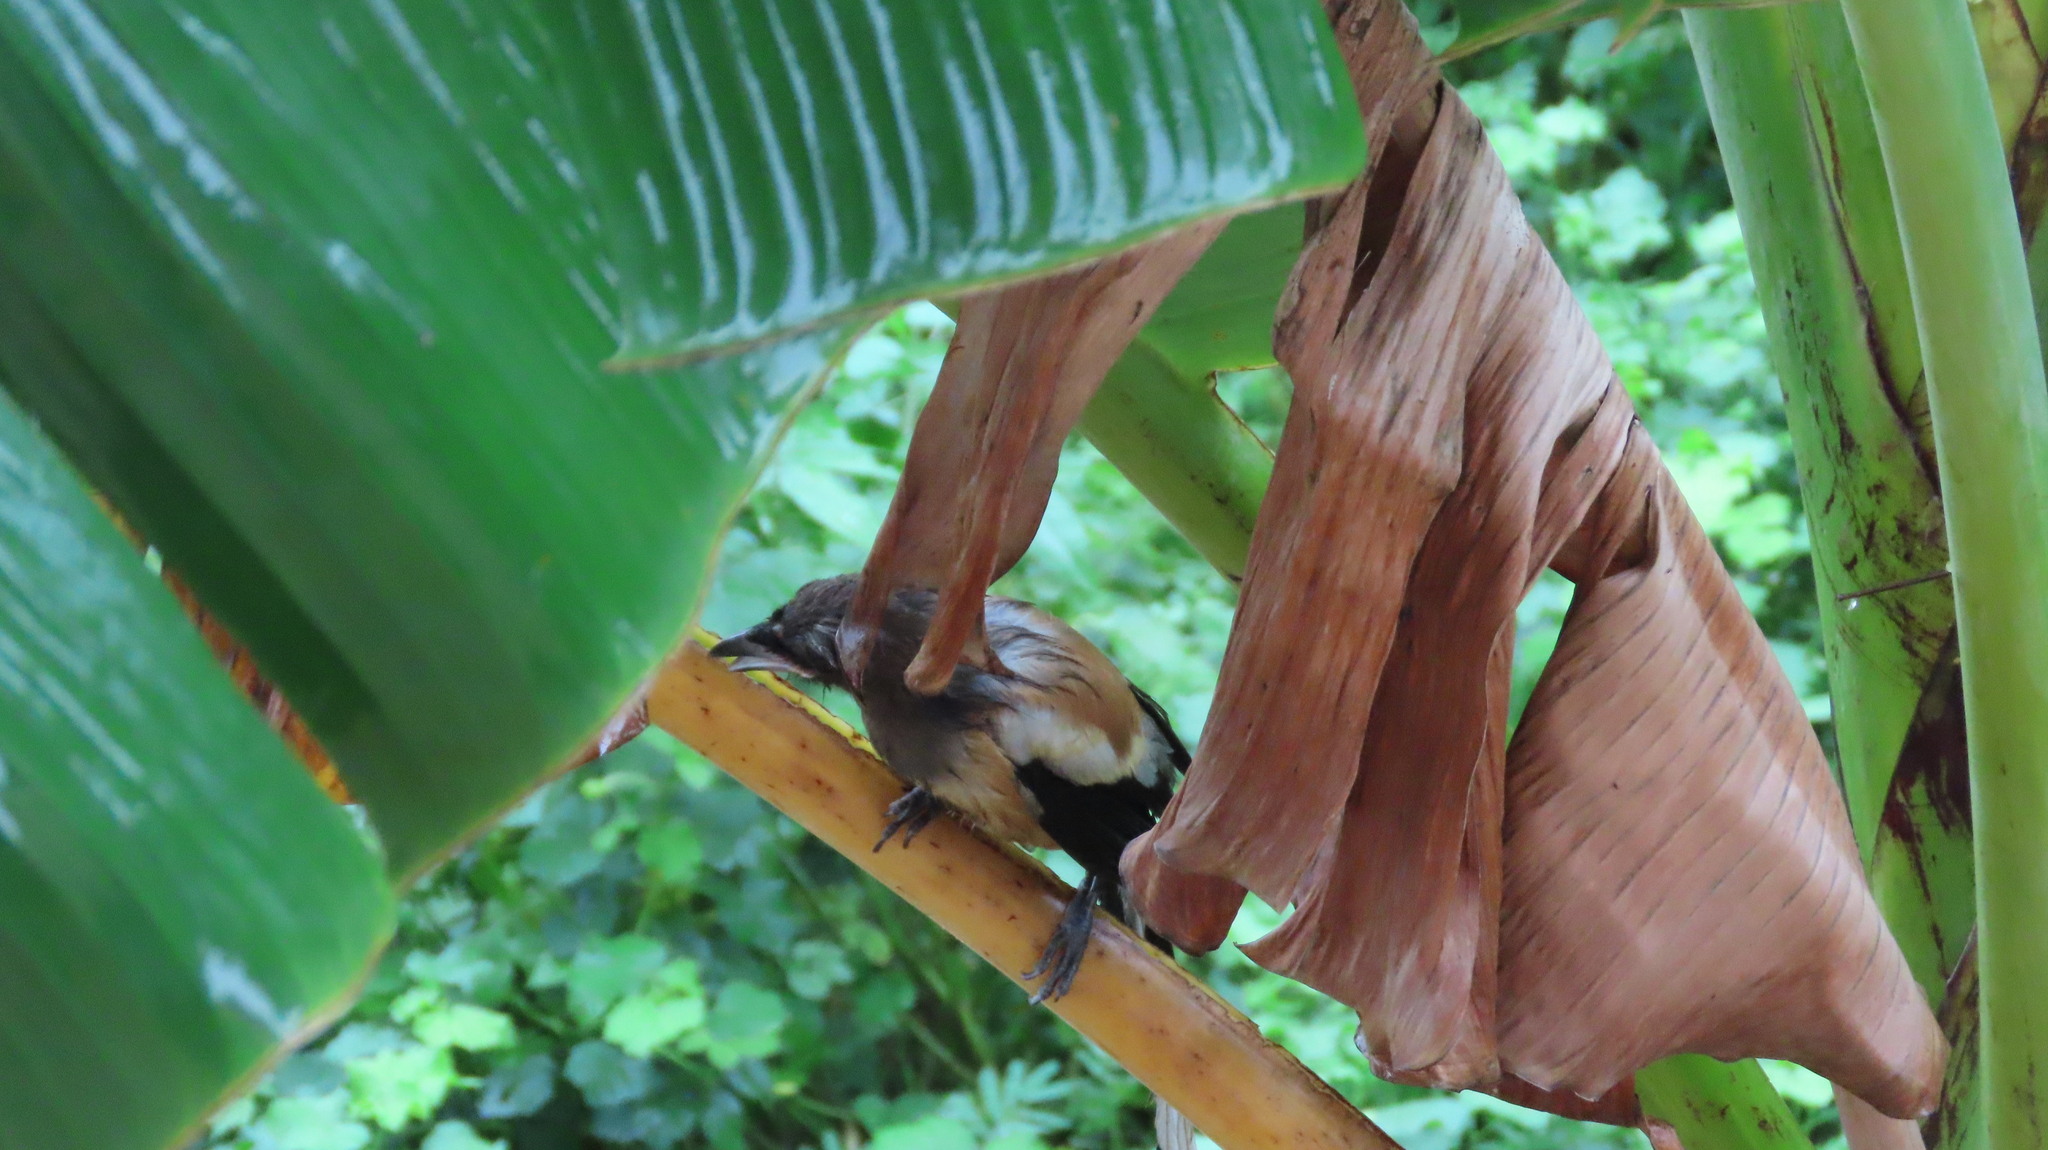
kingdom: Animalia
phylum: Chordata
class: Aves
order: Passeriformes
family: Corvidae
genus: Dendrocitta
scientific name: Dendrocitta vagabunda
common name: Rufous treepie
